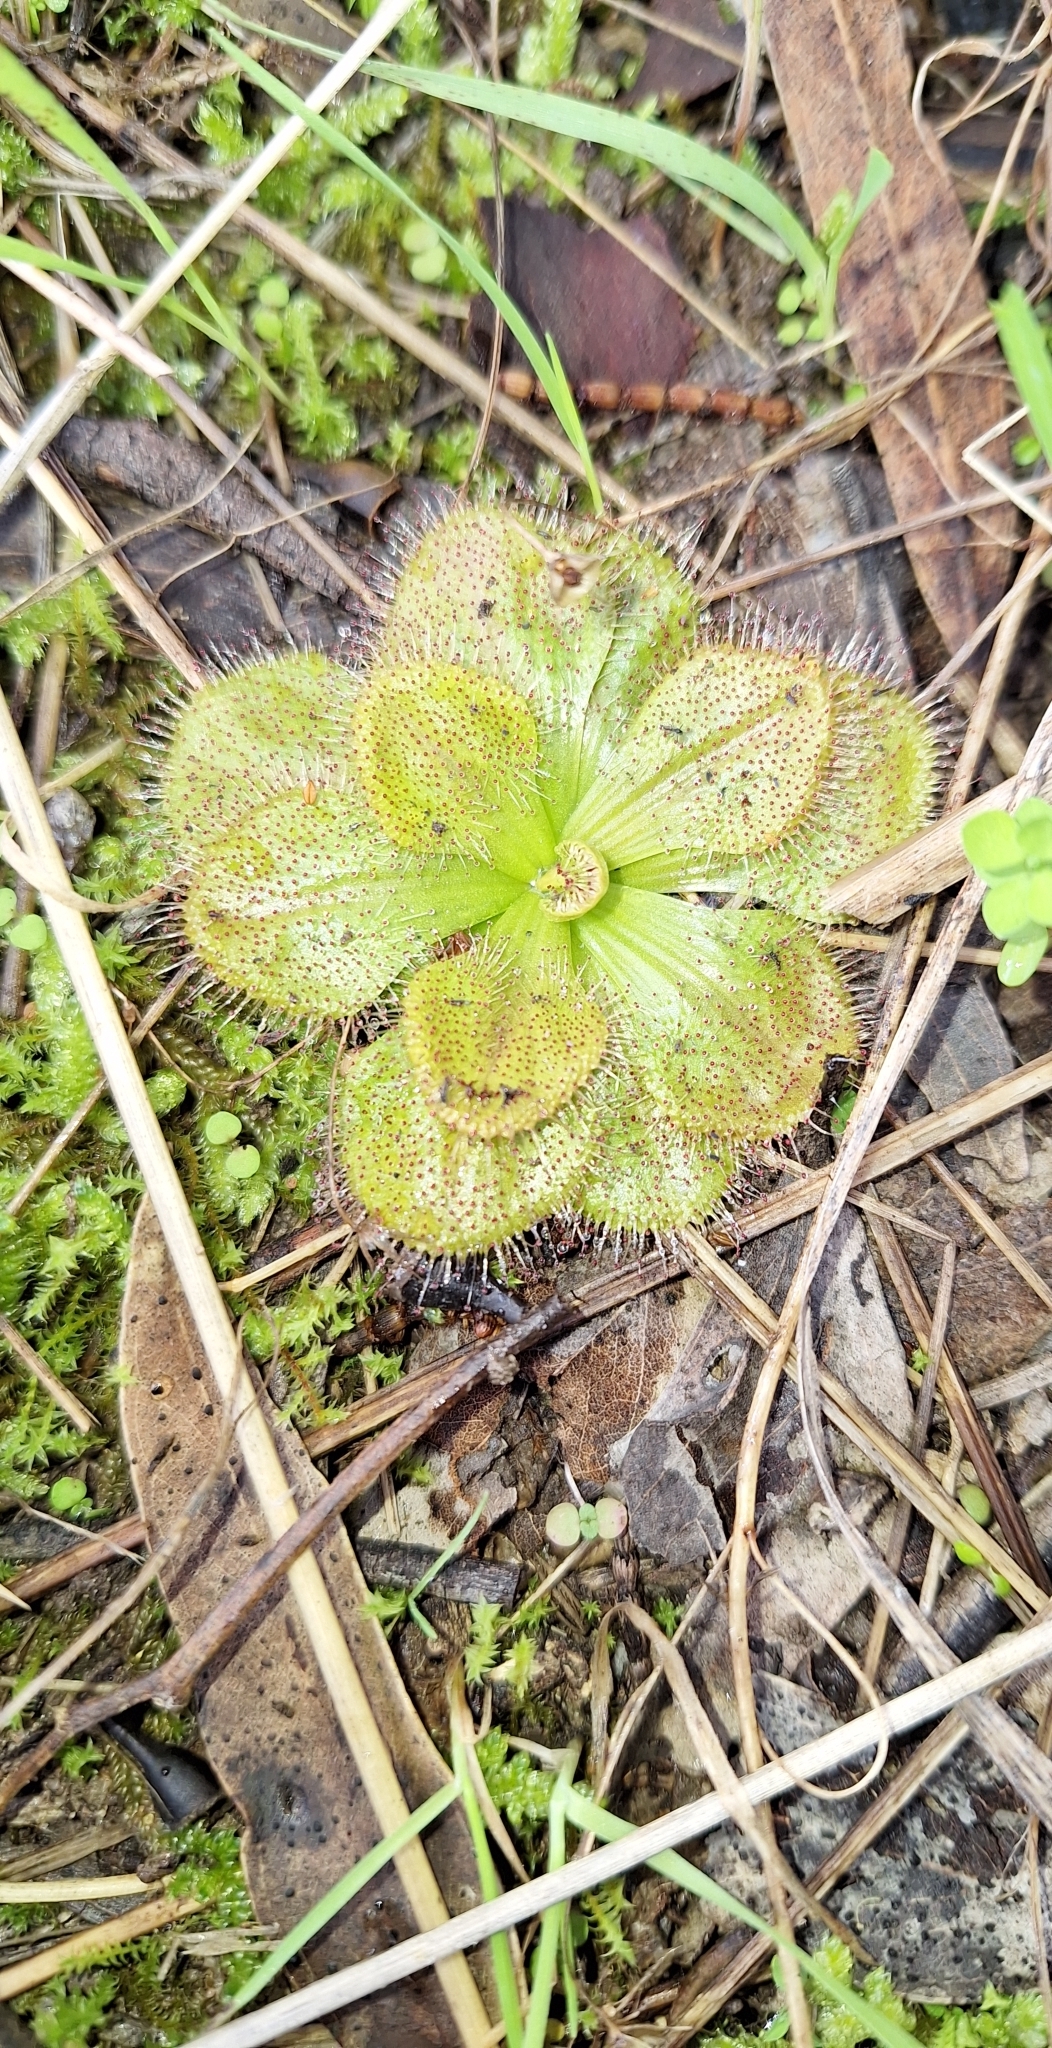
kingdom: Plantae
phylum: Tracheophyta
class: Magnoliopsida
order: Caryophyllales
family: Droseraceae
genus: Drosera
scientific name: Drosera whittakeri
